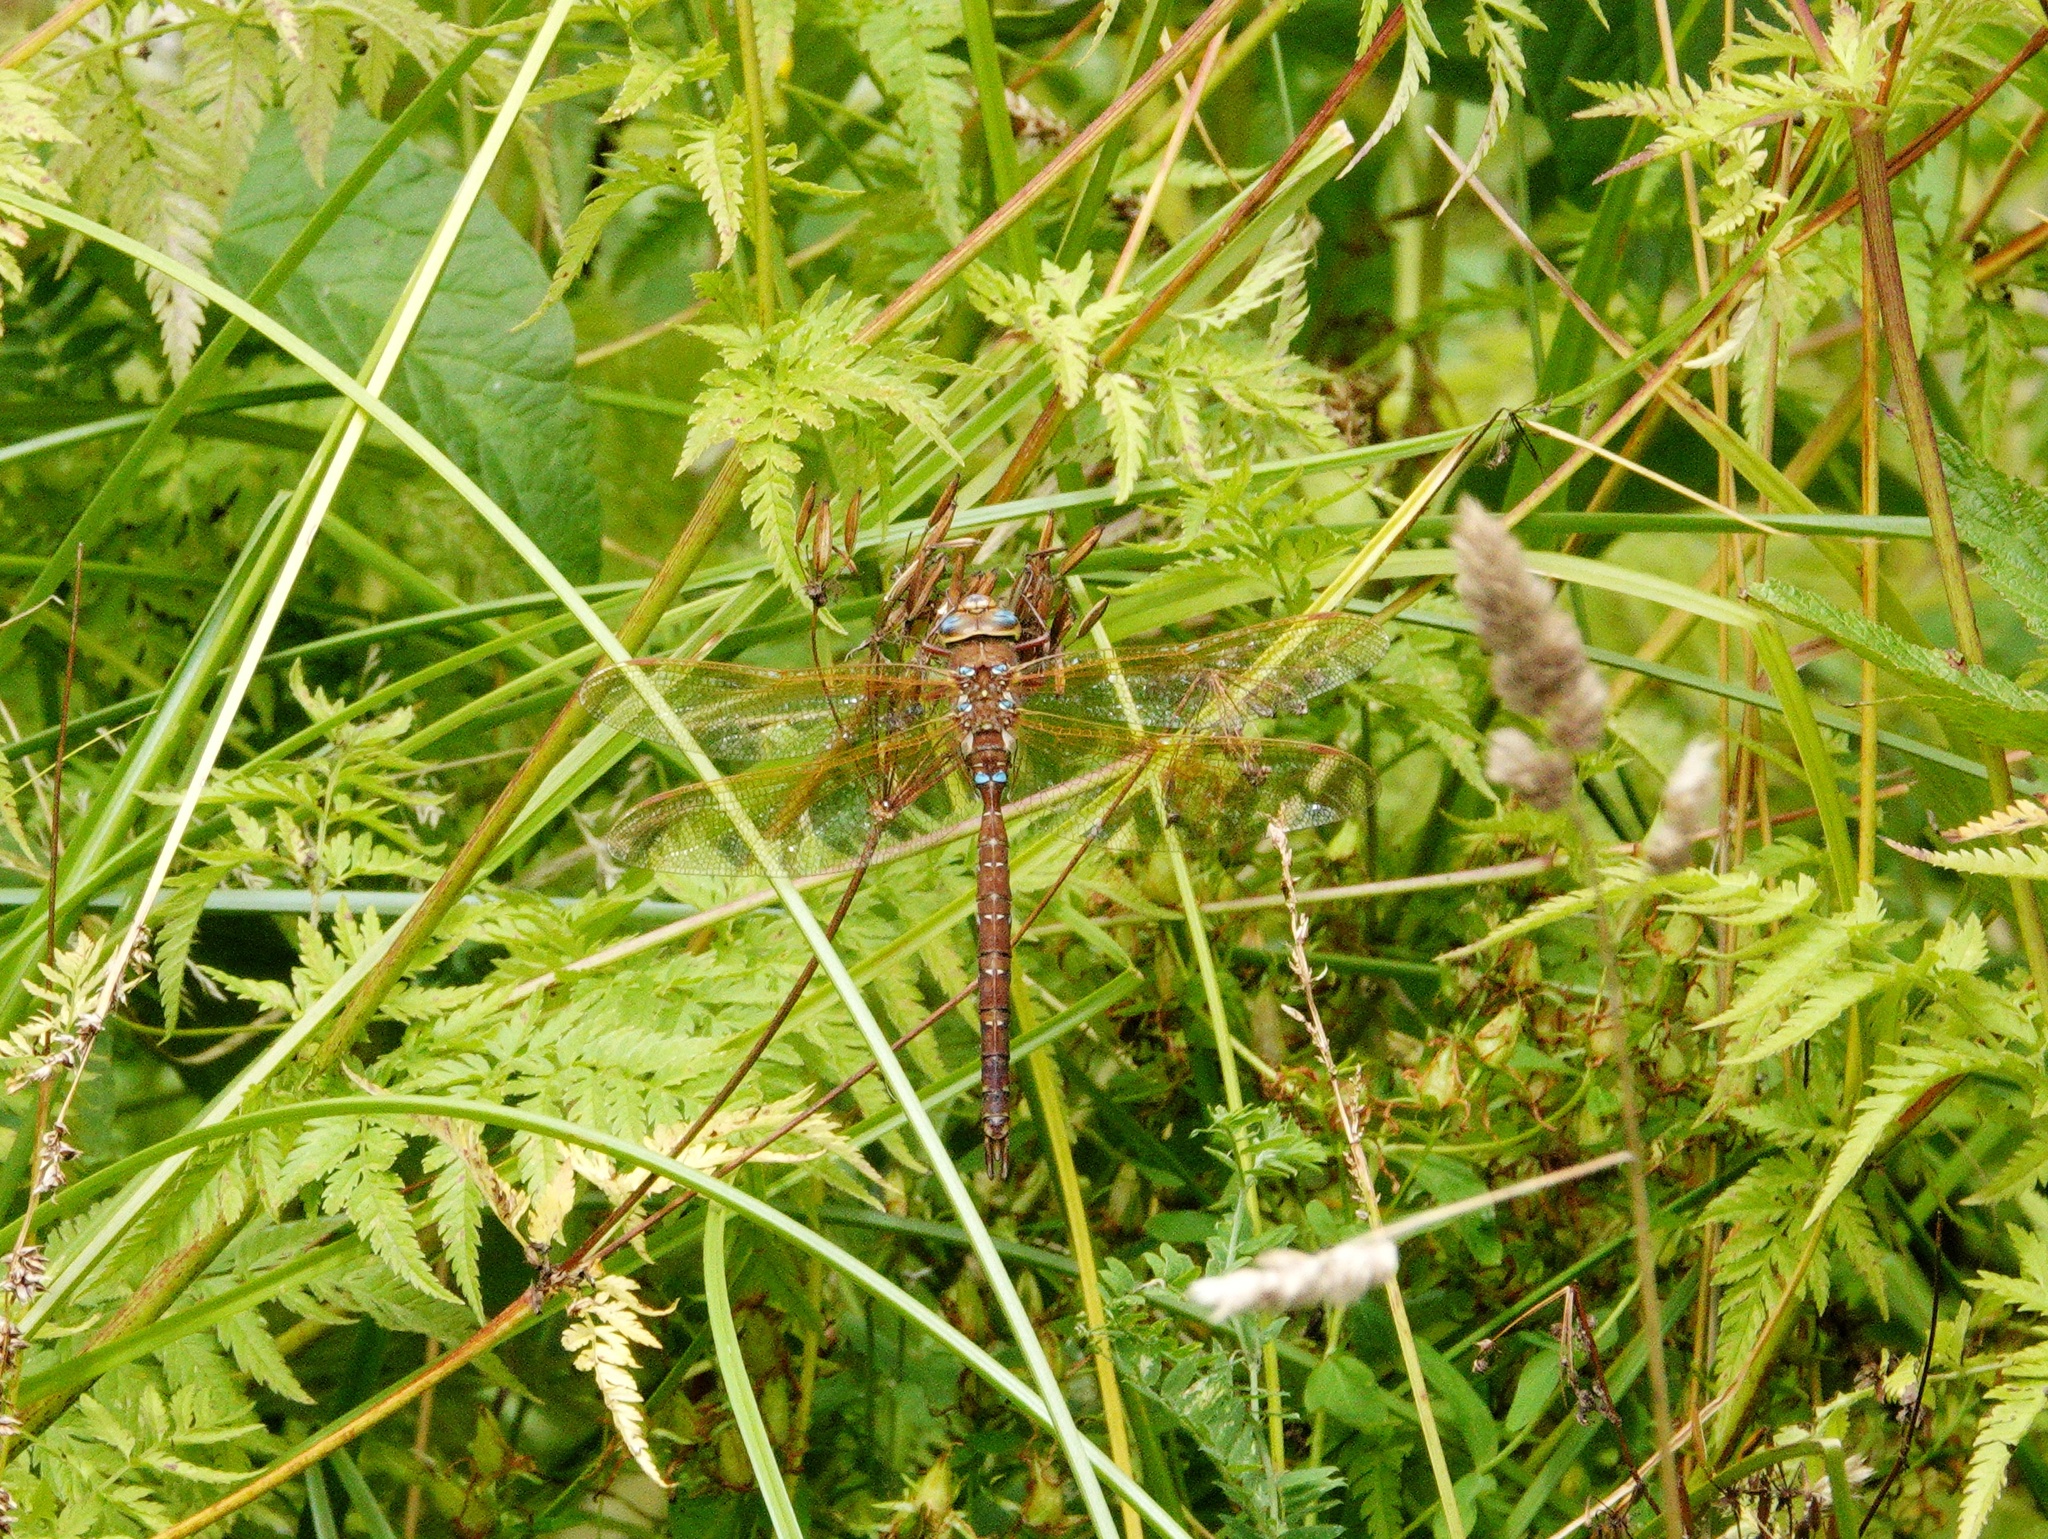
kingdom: Animalia
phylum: Arthropoda
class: Insecta
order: Odonata
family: Aeshnidae
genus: Aeshna
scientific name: Aeshna grandis
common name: Brown hawker
